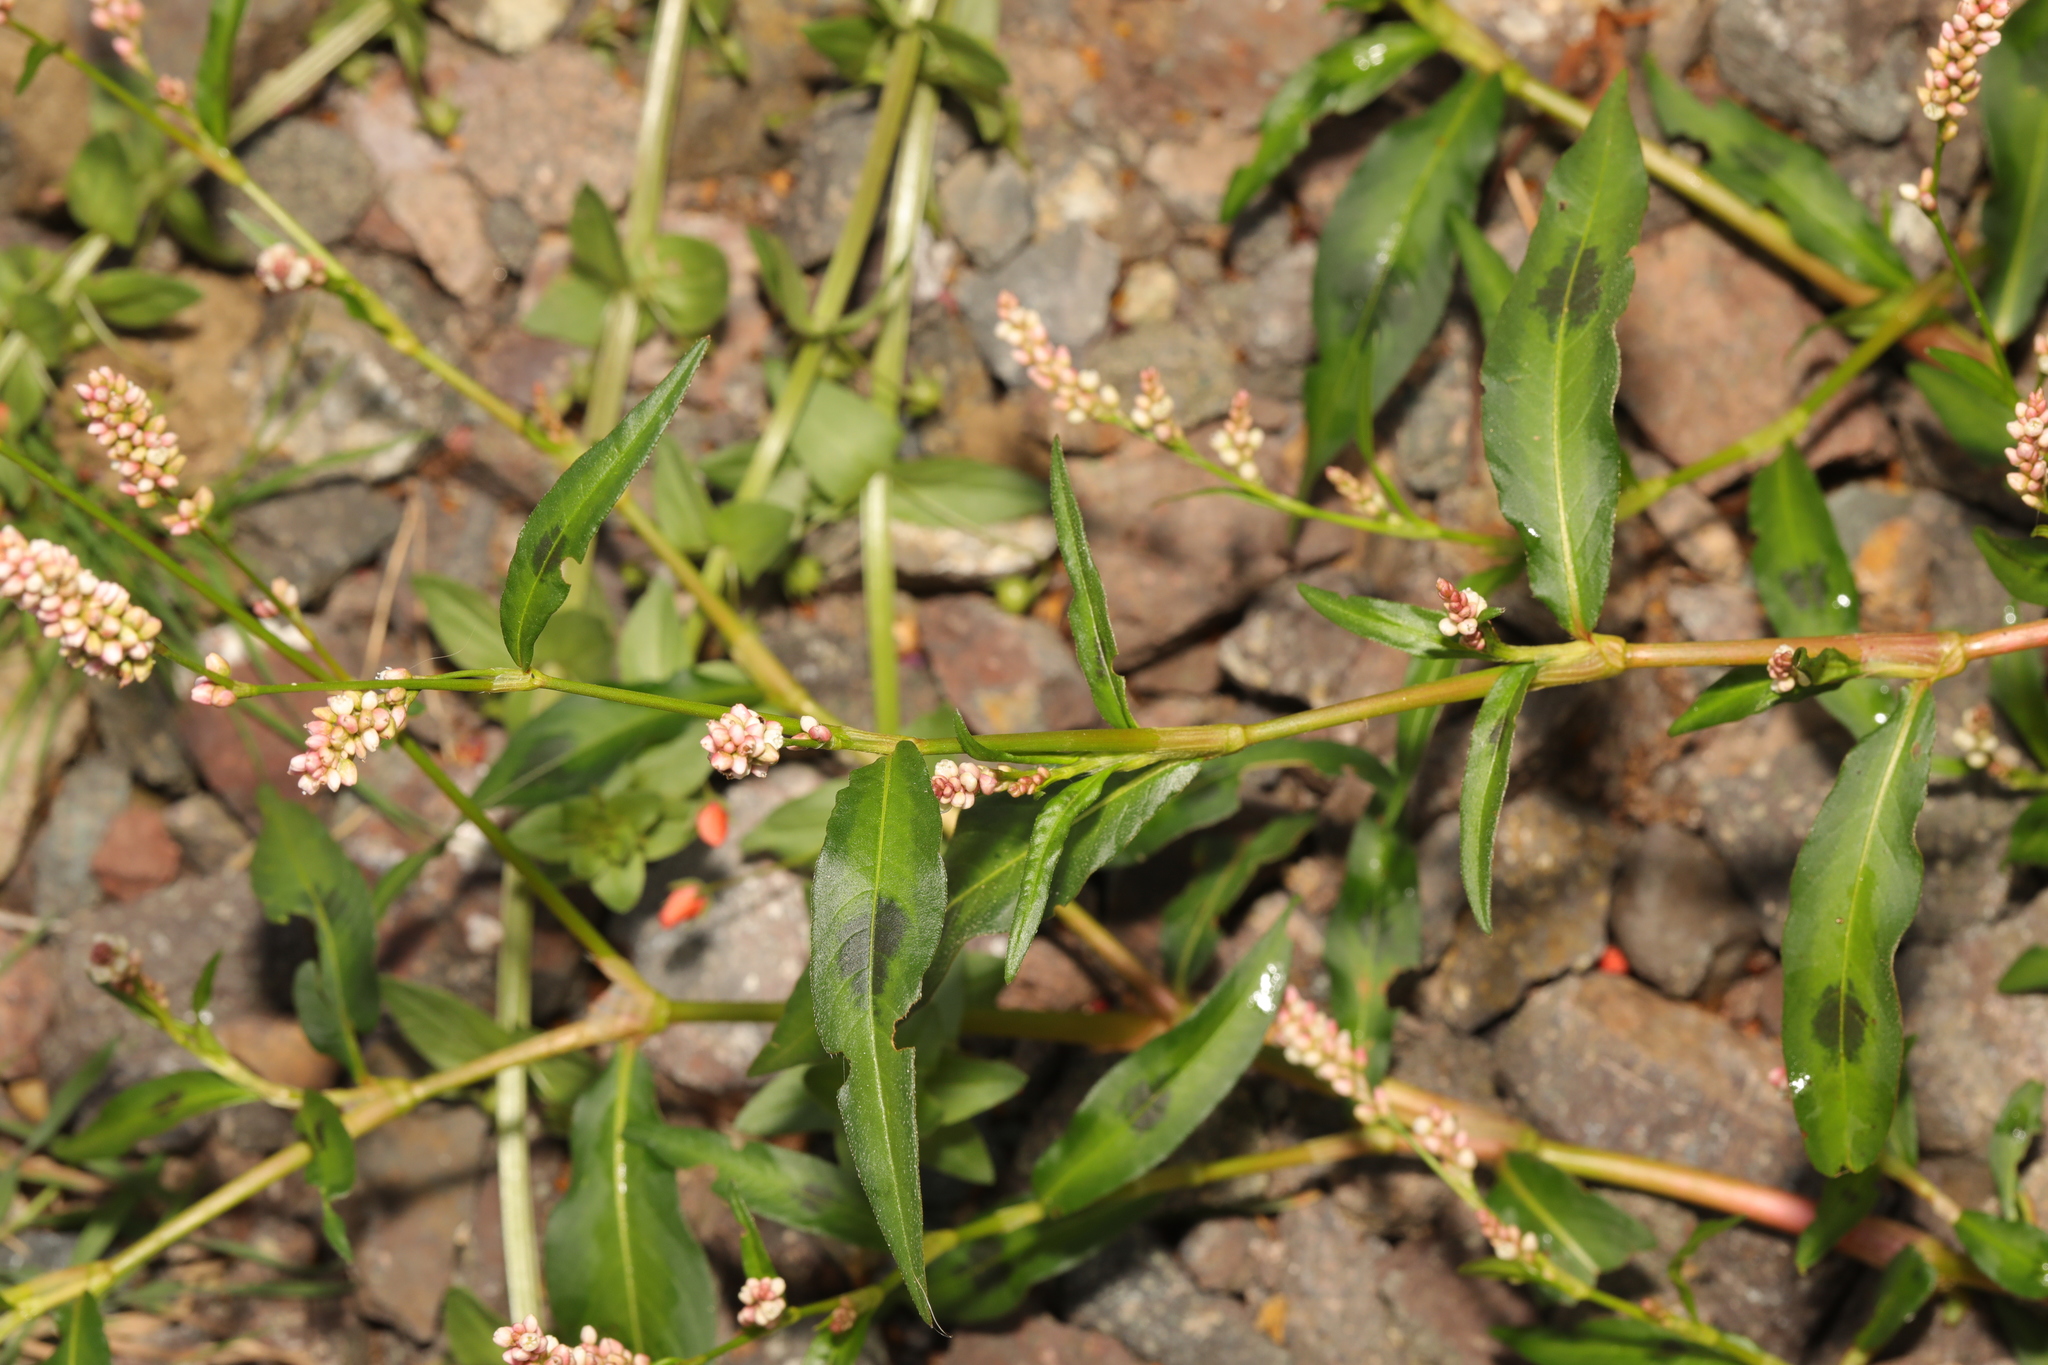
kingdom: Plantae
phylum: Tracheophyta
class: Magnoliopsida
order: Caryophyllales
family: Polygonaceae
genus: Persicaria
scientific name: Persicaria maculosa
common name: Redshank
